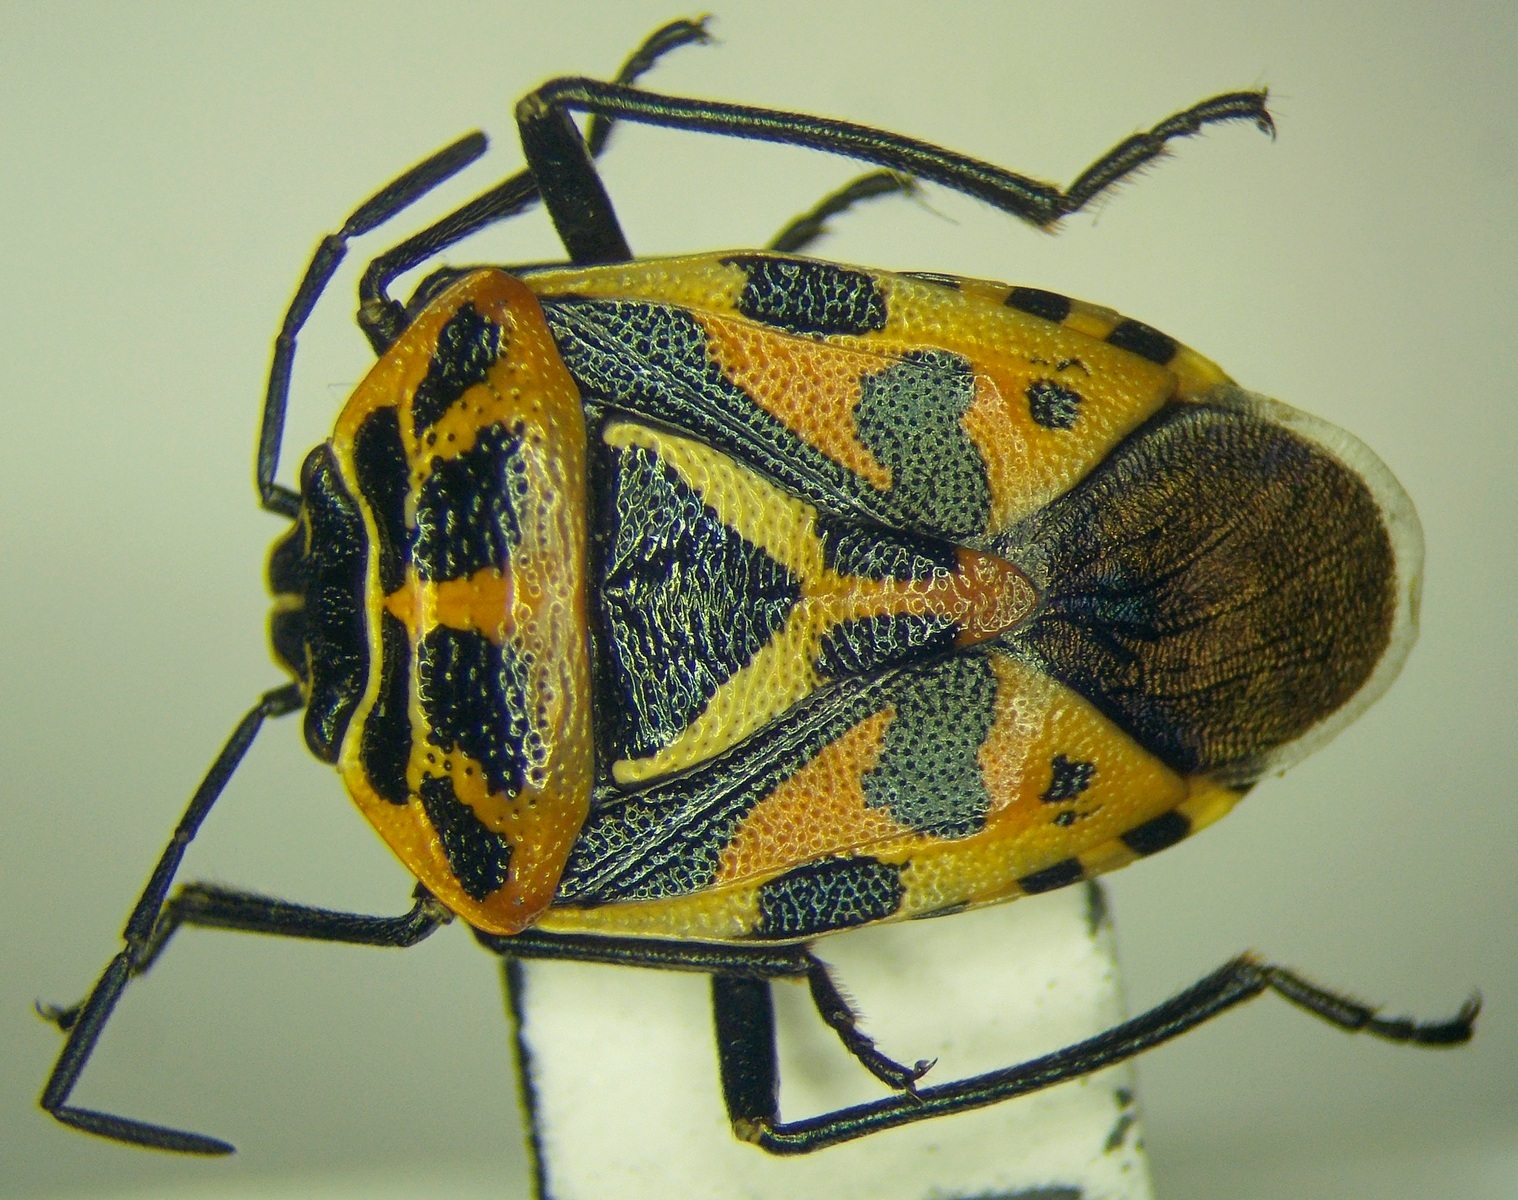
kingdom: Animalia
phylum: Arthropoda
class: Insecta
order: Hemiptera
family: Pentatomidae
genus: Eurydema
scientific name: Eurydema ventralis
